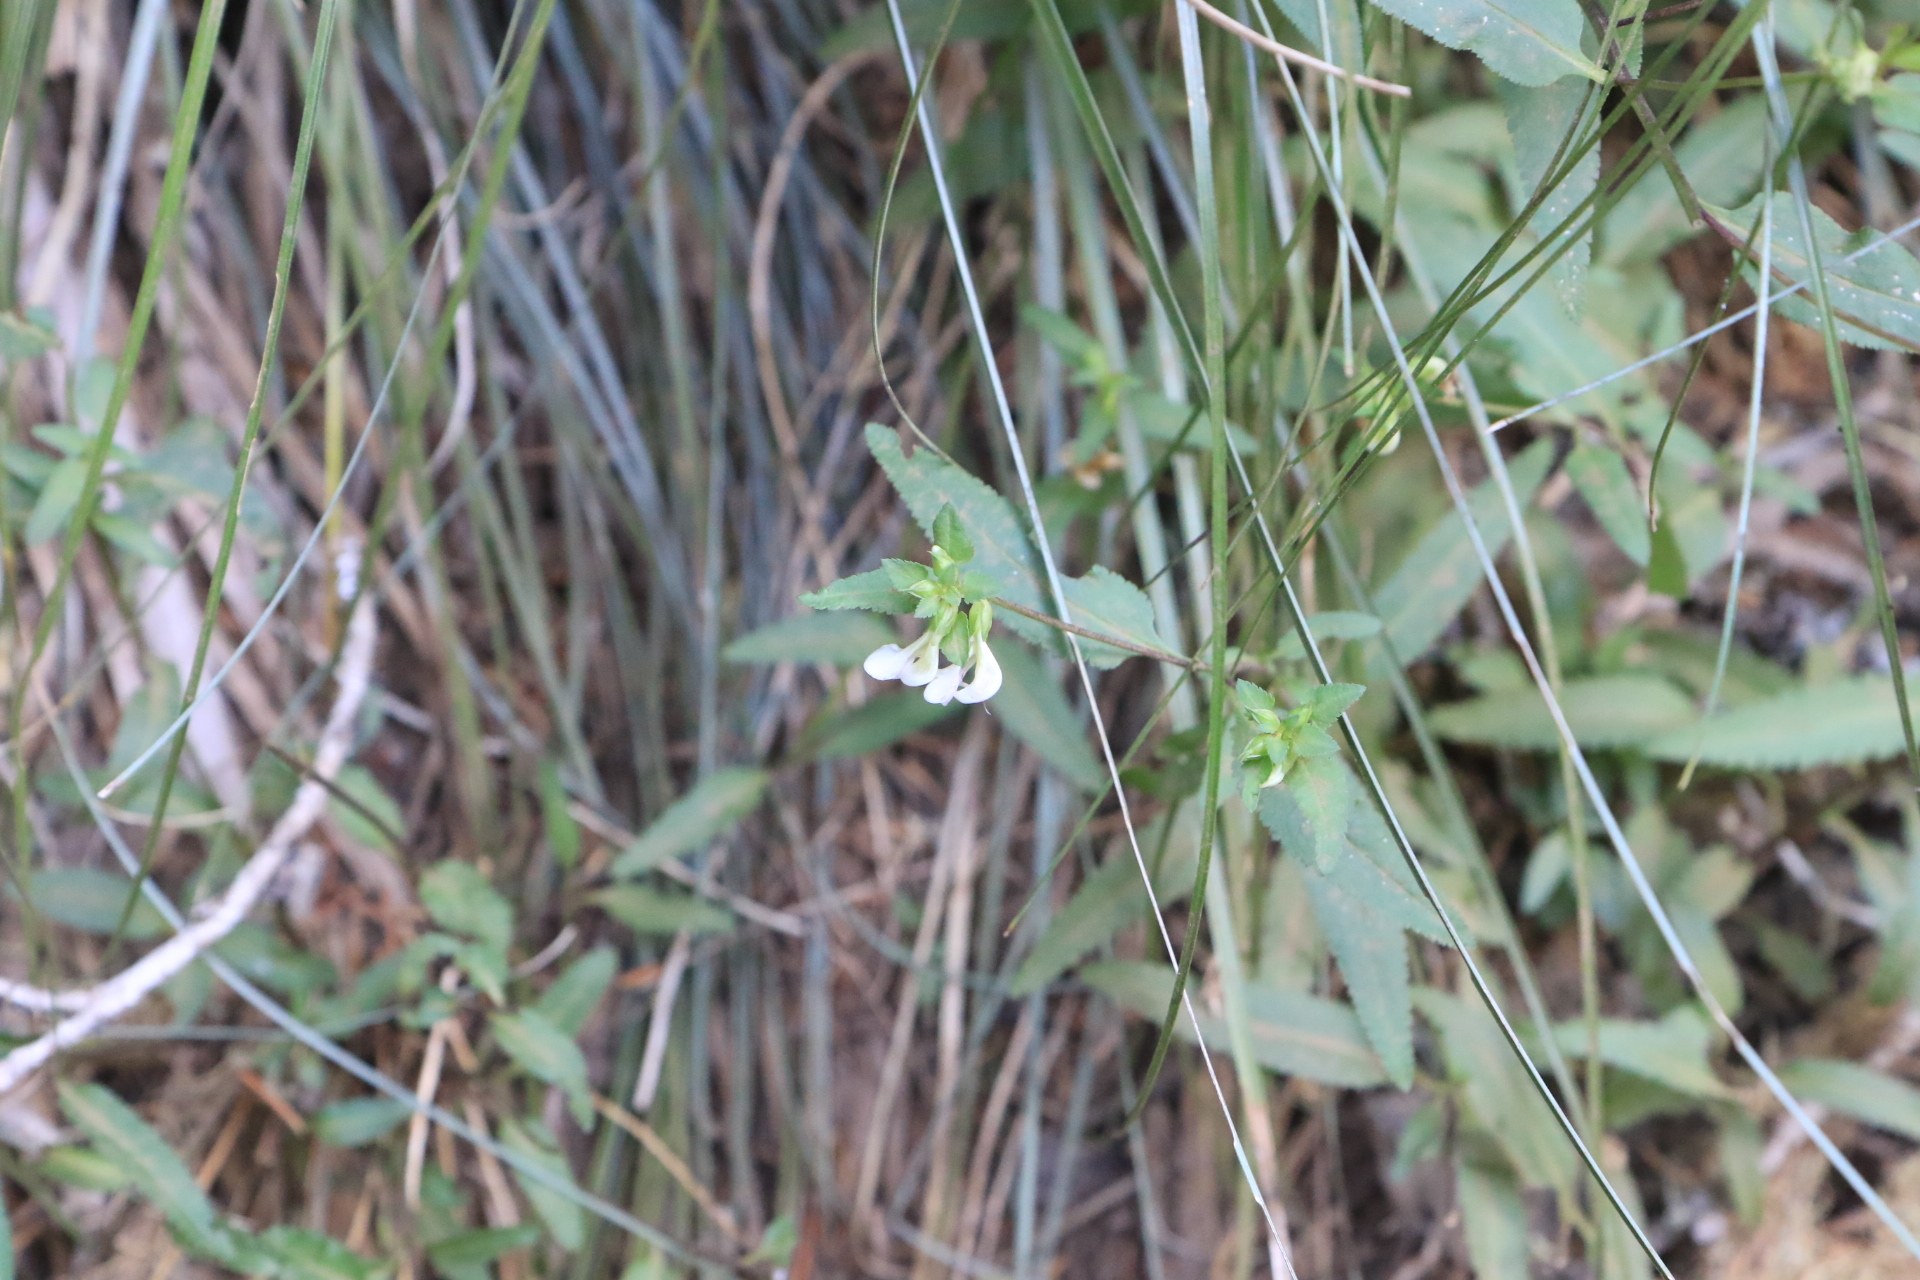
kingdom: Plantae
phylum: Tracheophyta
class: Magnoliopsida
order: Lamiales
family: Orobanchaceae
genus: Pedicularis
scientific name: Pedicularis racemosa
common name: Leafy lousewort
